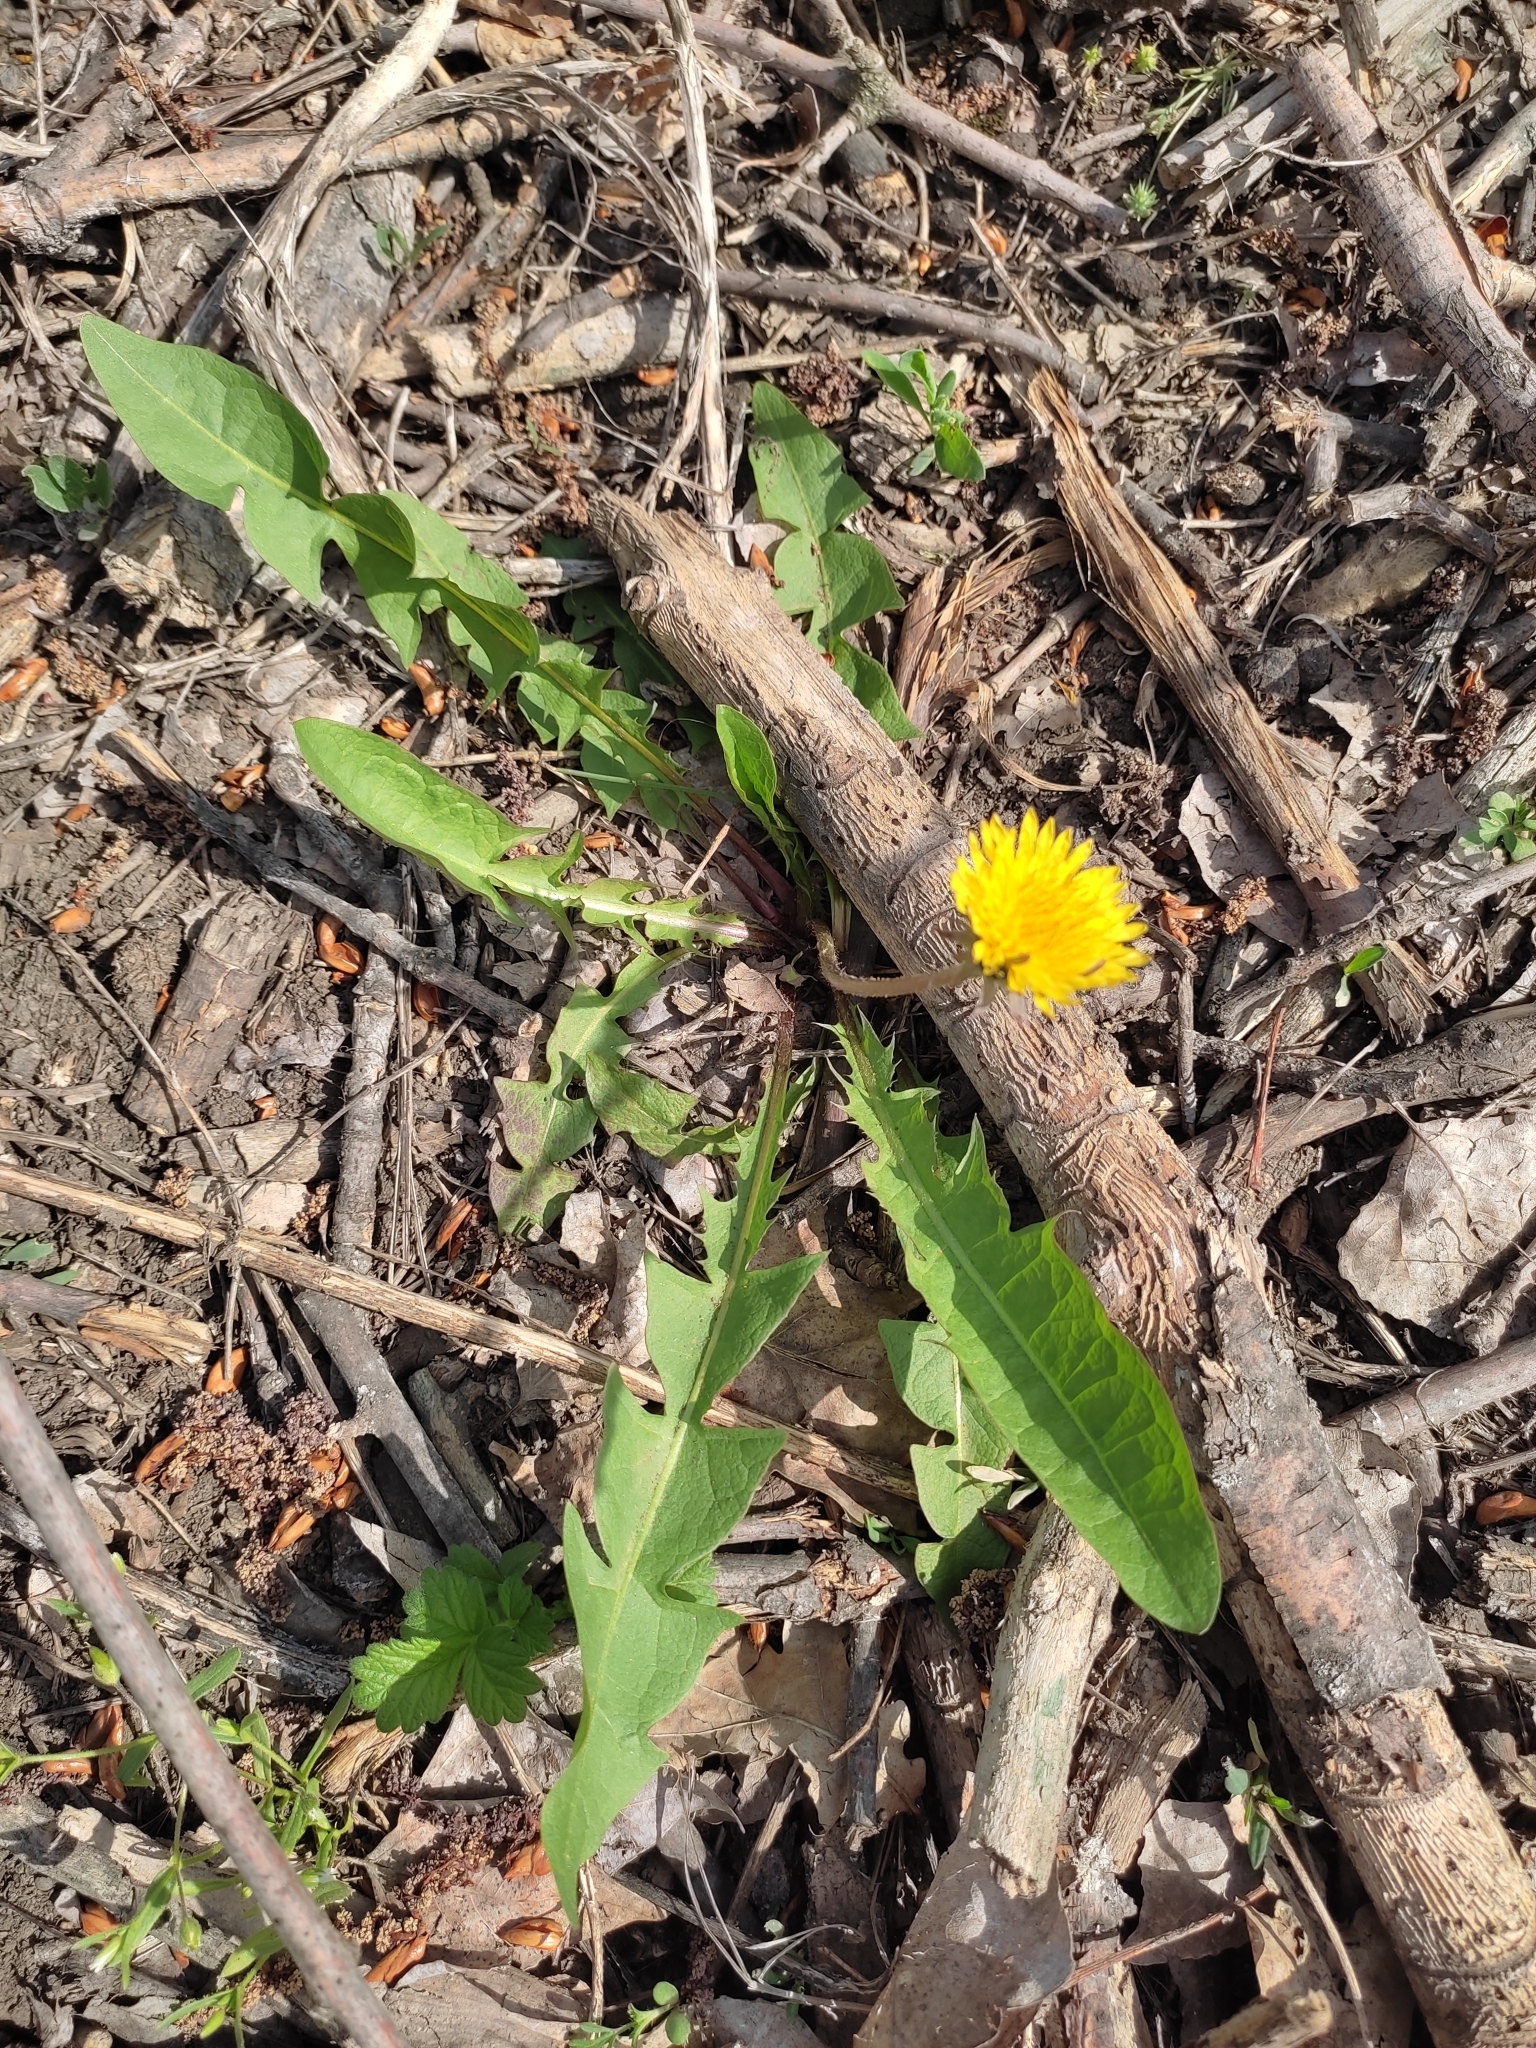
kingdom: Plantae
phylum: Tracheophyta
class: Magnoliopsida
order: Asterales
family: Asteraceae
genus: Taraxacum
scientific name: Taraxacum officinale
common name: Common dandelion
